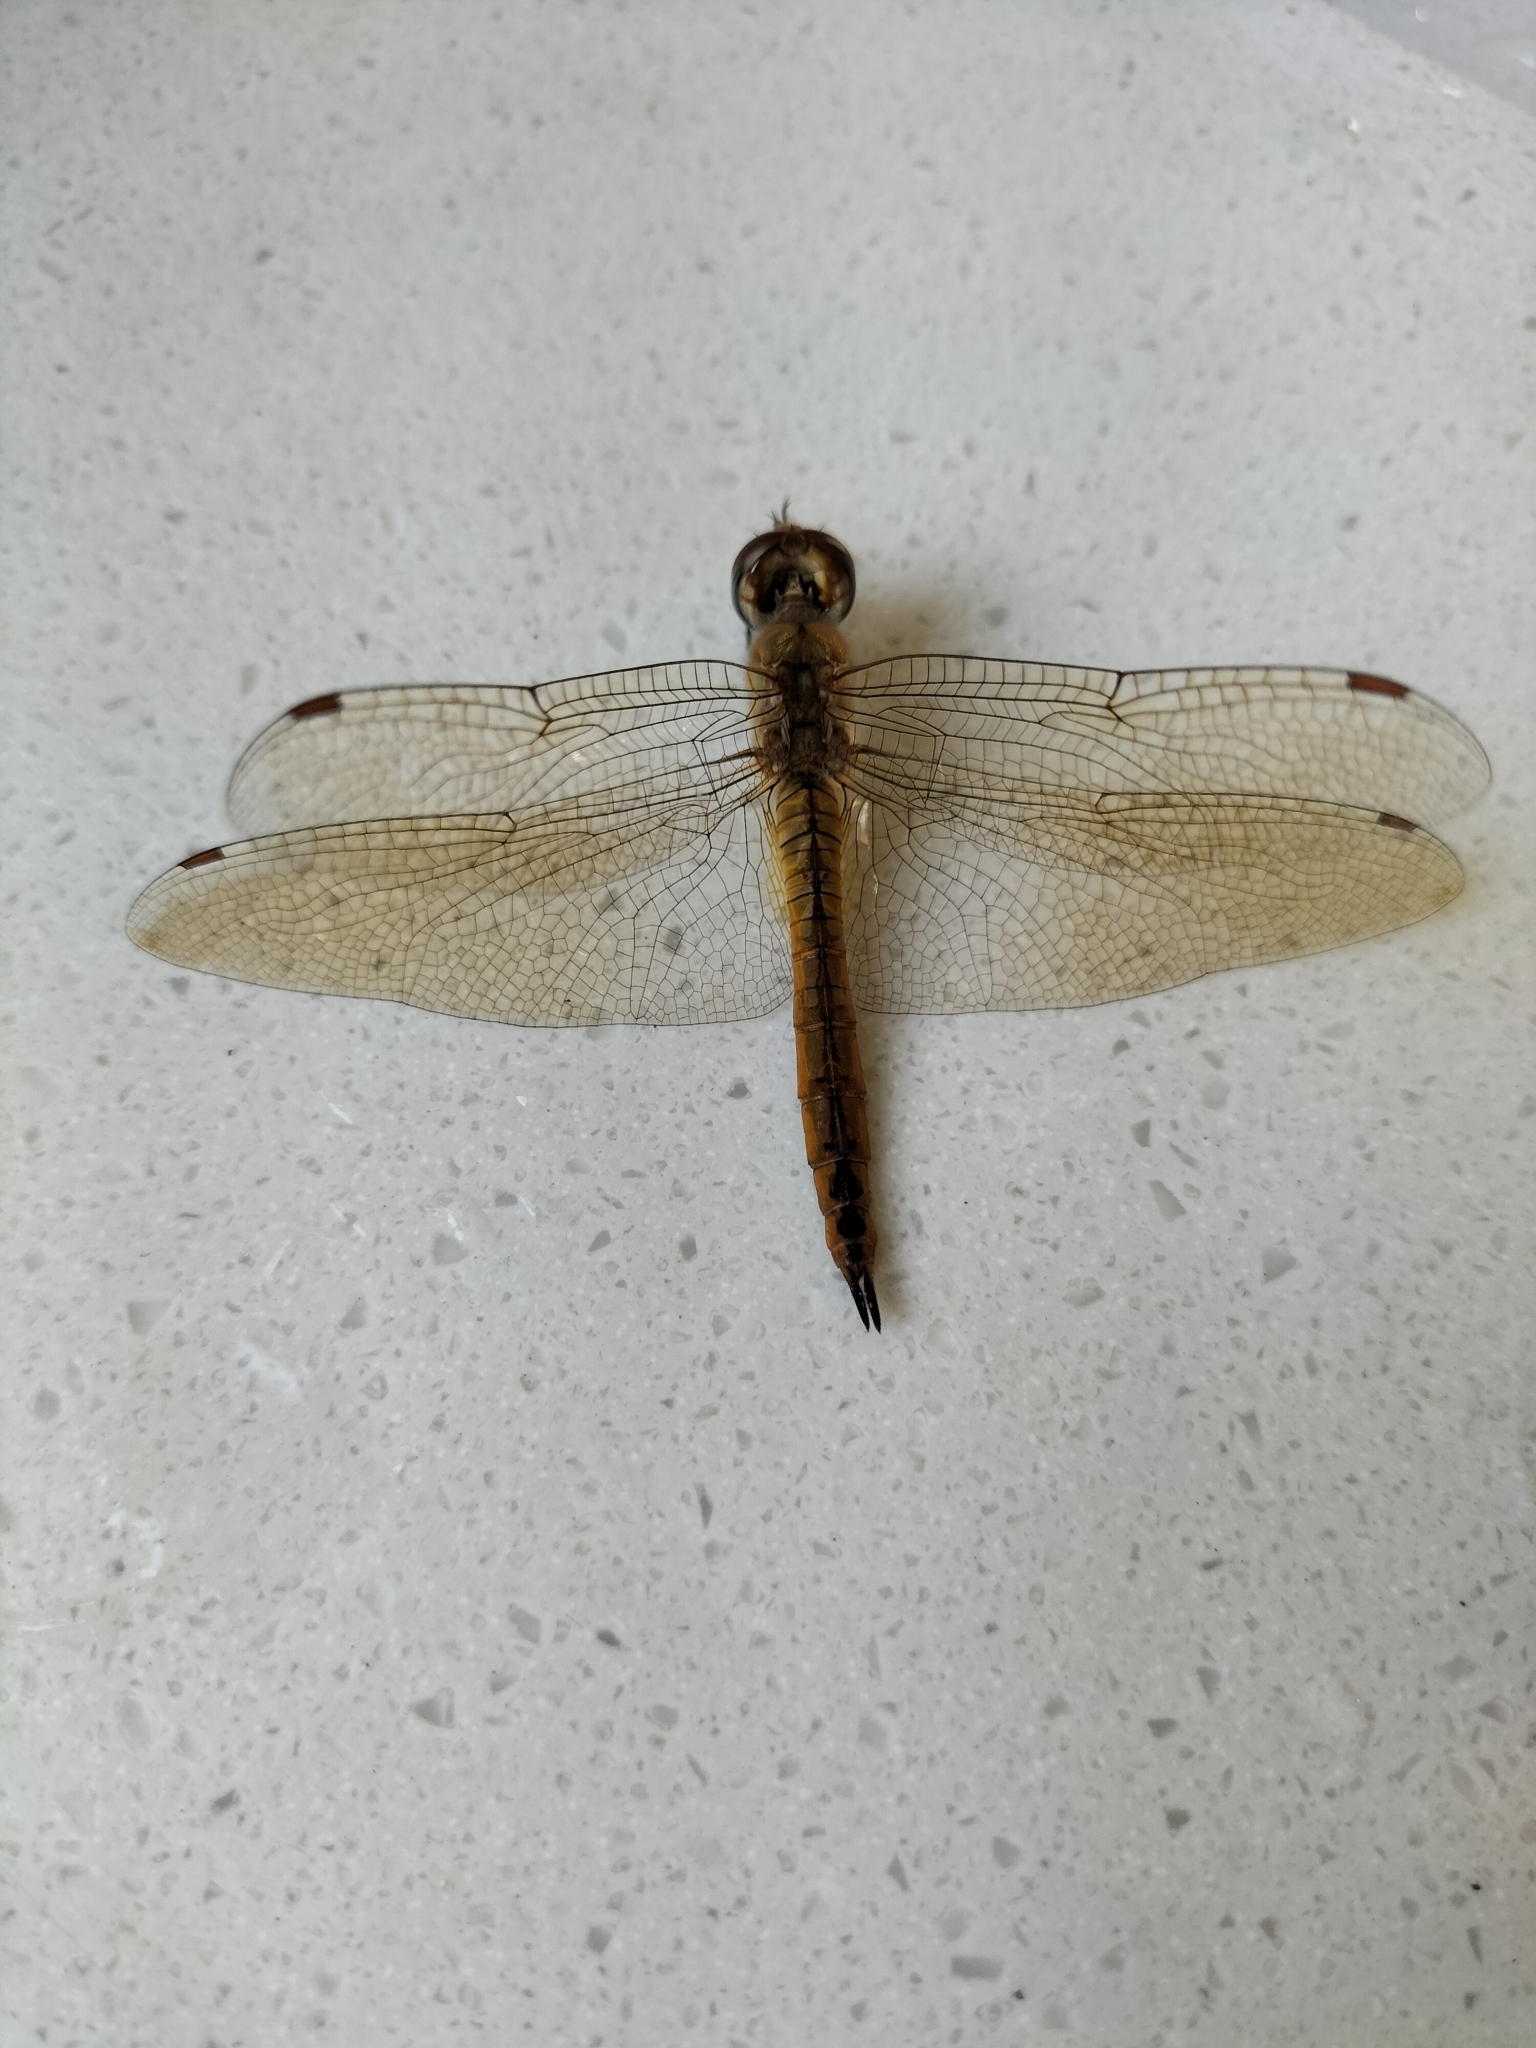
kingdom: Animalia
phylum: Arthropoda
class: Insecta
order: Odonata
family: Libellulidae
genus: Pantala
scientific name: Pantala flavescens
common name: Wandering glider
